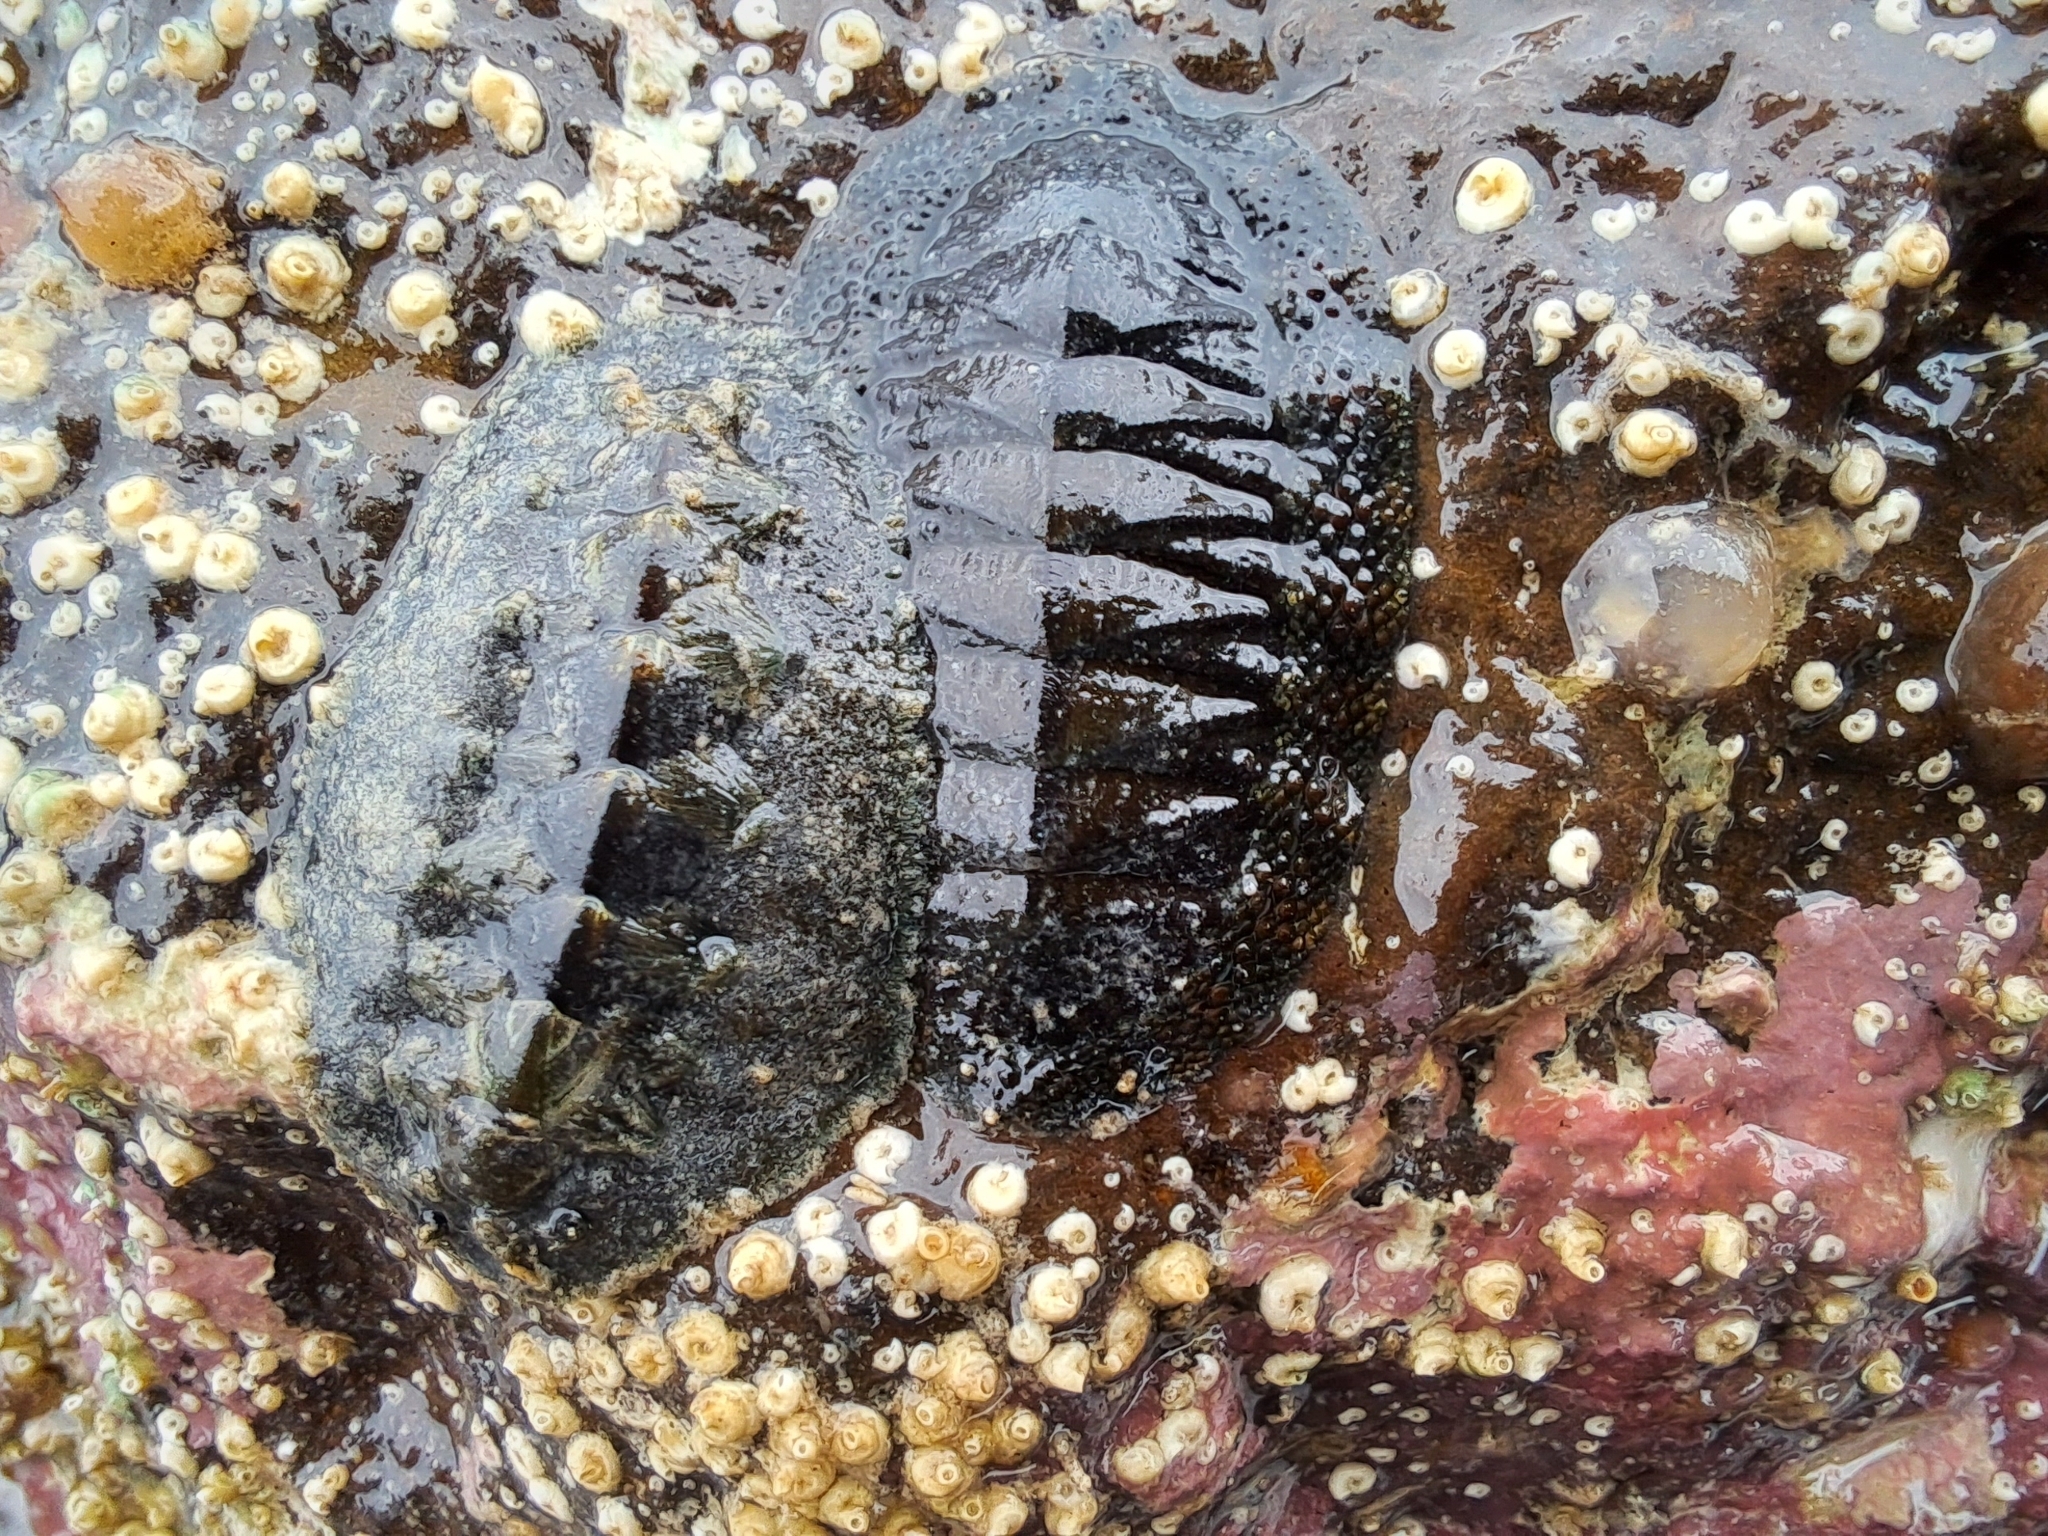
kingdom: Animalia
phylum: Mollusca
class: Polyplacophora
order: Chitonida
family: Acanthochitonidae
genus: Acanthochitona
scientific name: Acanthochitona hirudiniformis
